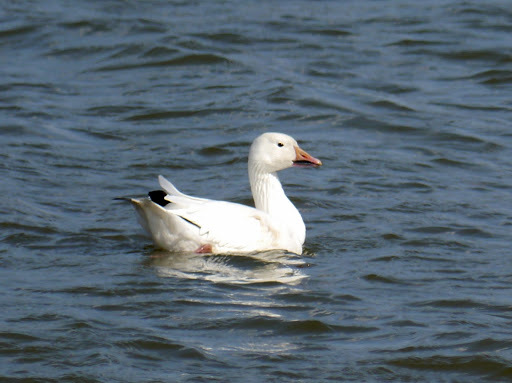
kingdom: Animalia
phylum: Chordata
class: Aves
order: Anseriformes
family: Anatidae
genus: Anser
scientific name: Anser caerulescens
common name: Snow goose
